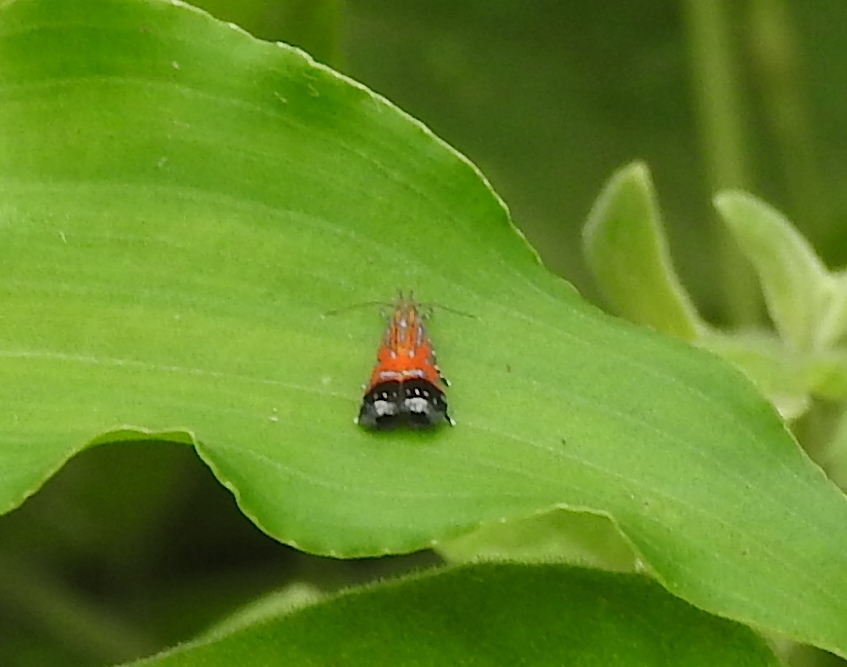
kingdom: Animalia
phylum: Arthropoda
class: Insecta
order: Lepidoptera
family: Gelechiidae
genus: Tricyanaula
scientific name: Tricyanaula aurantiaca
